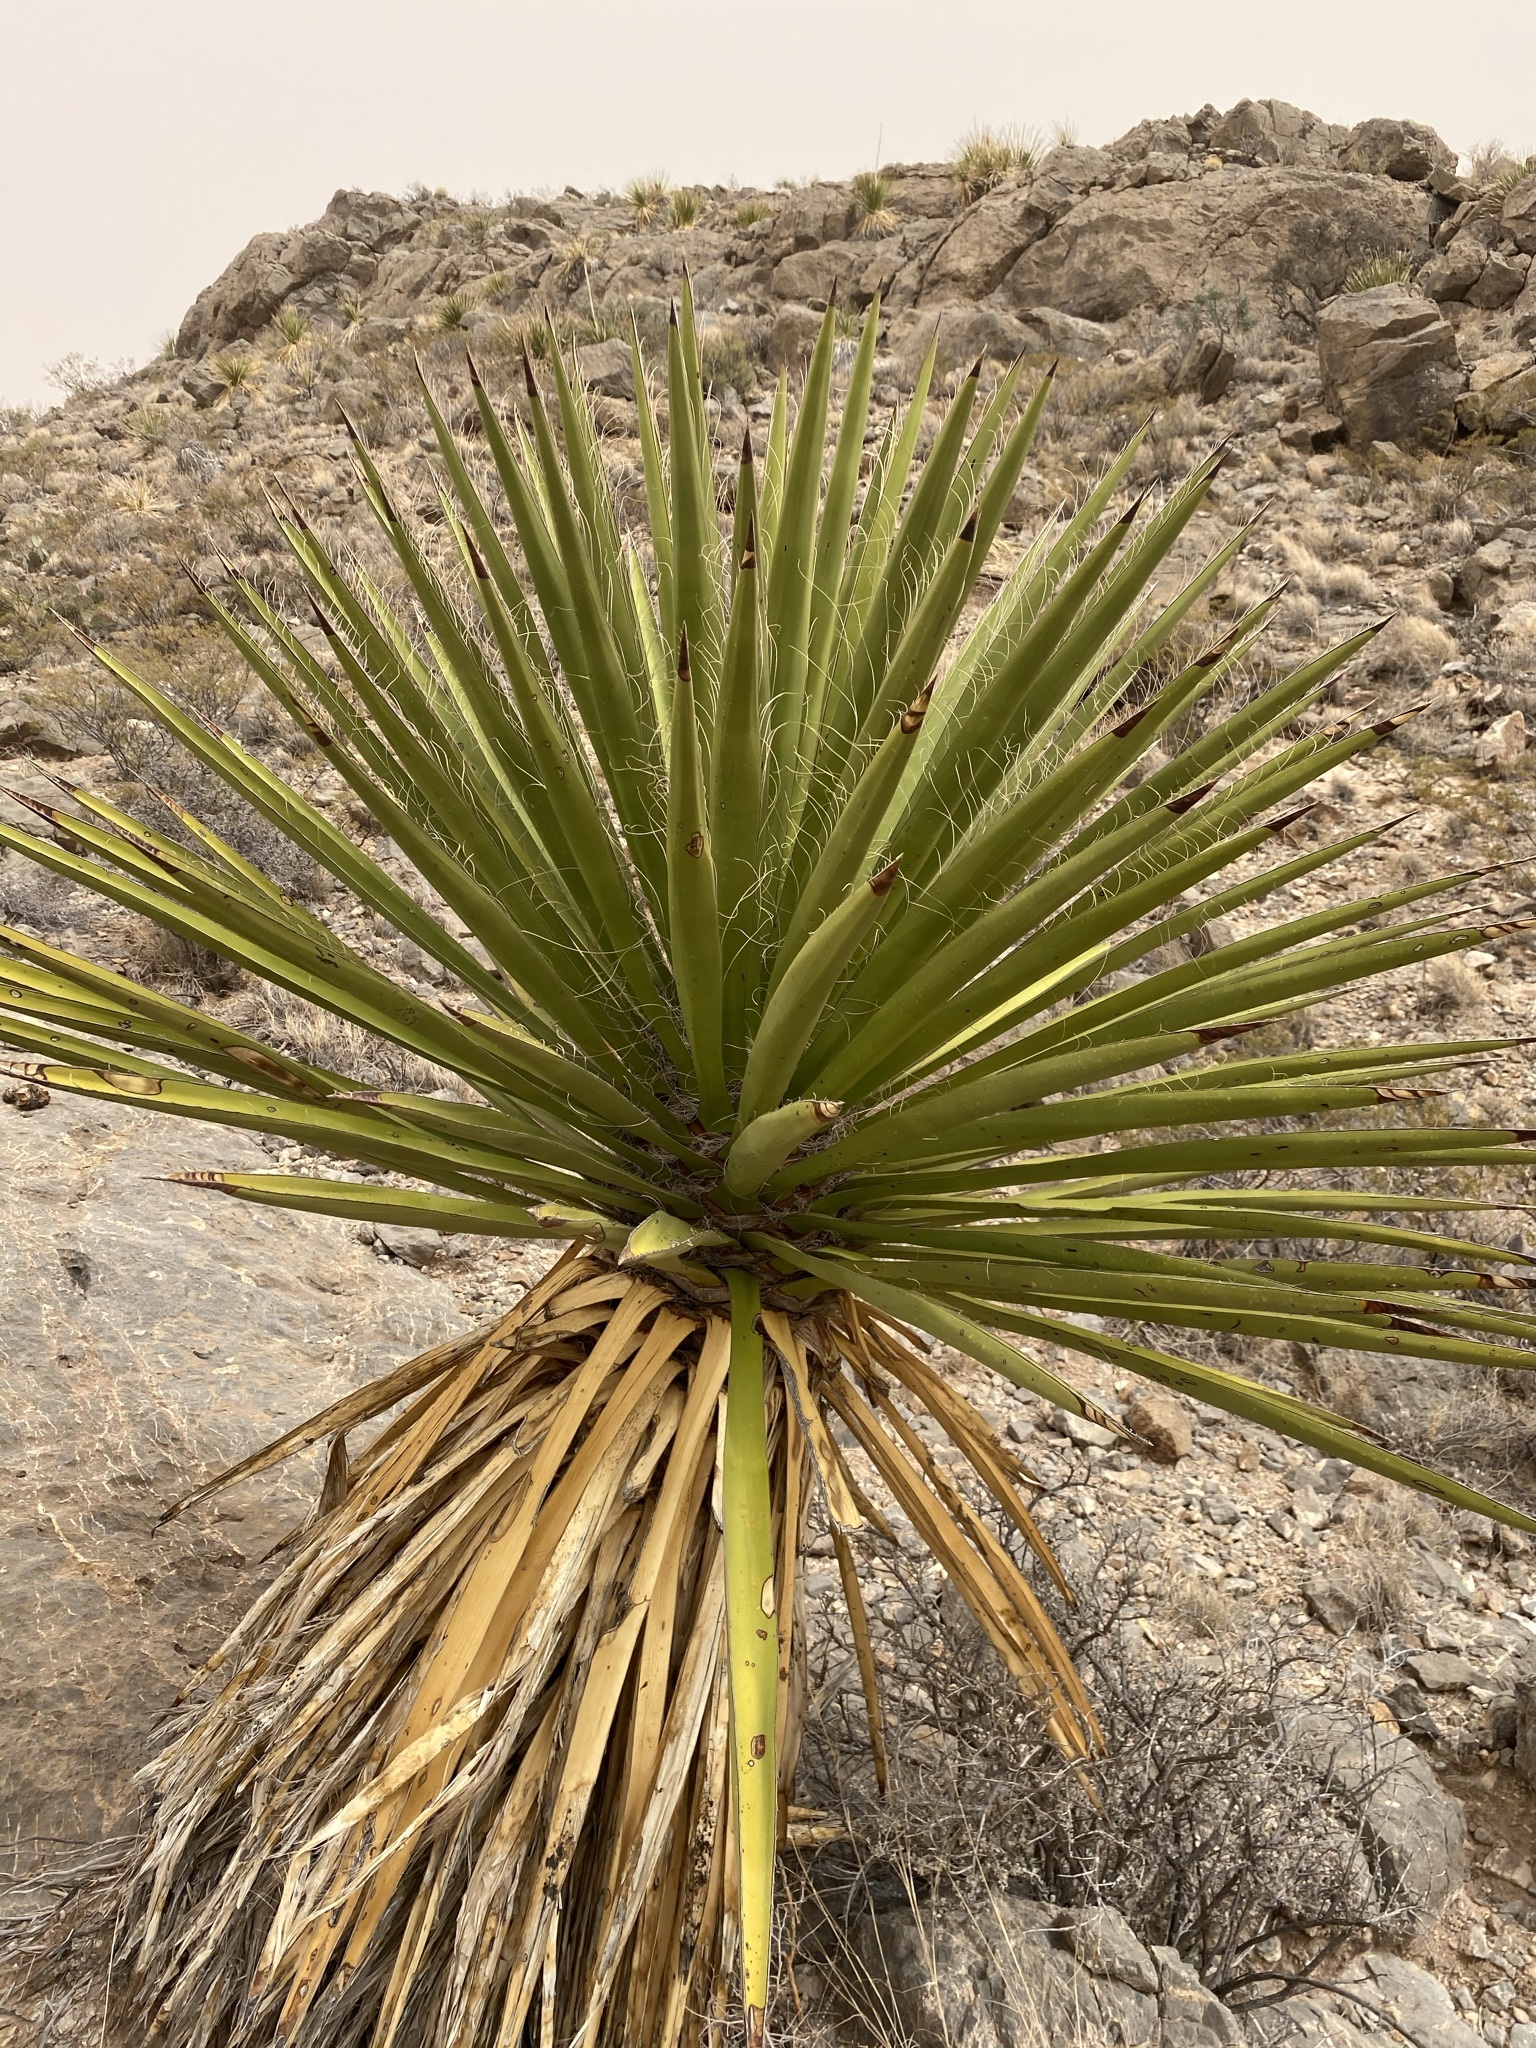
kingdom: Plantae
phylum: Tracheophyta
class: Liliopsida
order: Asparagales
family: Asparagaceae
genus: Yucca
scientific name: Yucca faxoniana
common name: Spanish dagger
